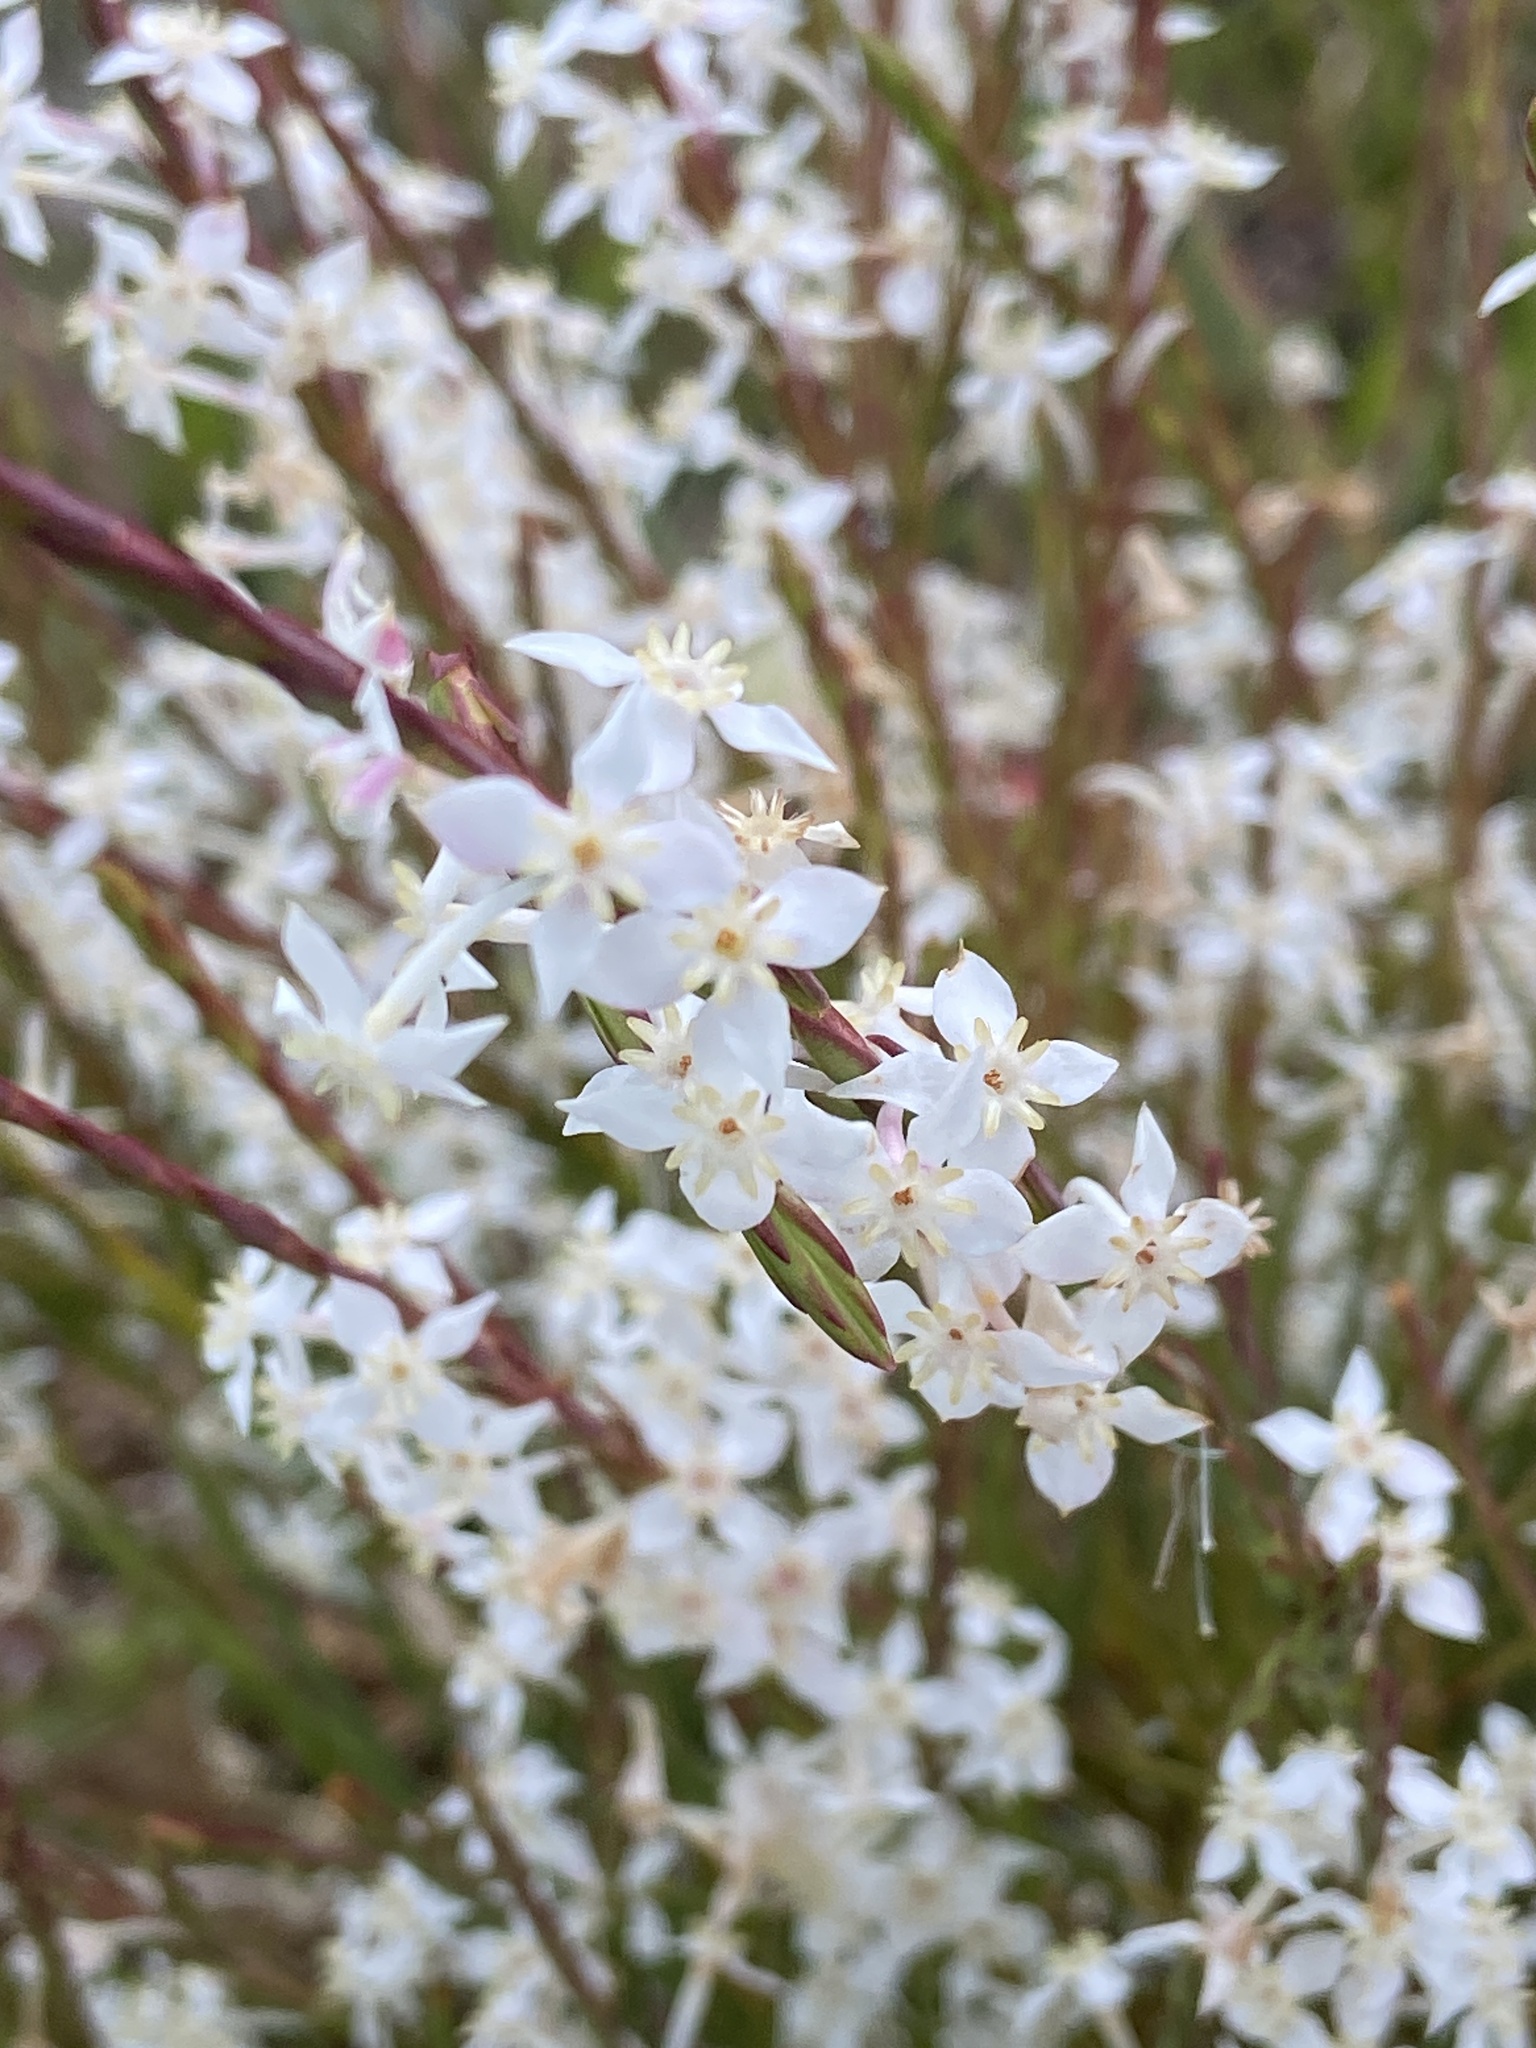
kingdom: Plantae
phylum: Tracheophyta
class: Magnoliopsida
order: Malvales
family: Thymelaeaceae
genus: Struthiola
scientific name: Struthiola dodecandra
